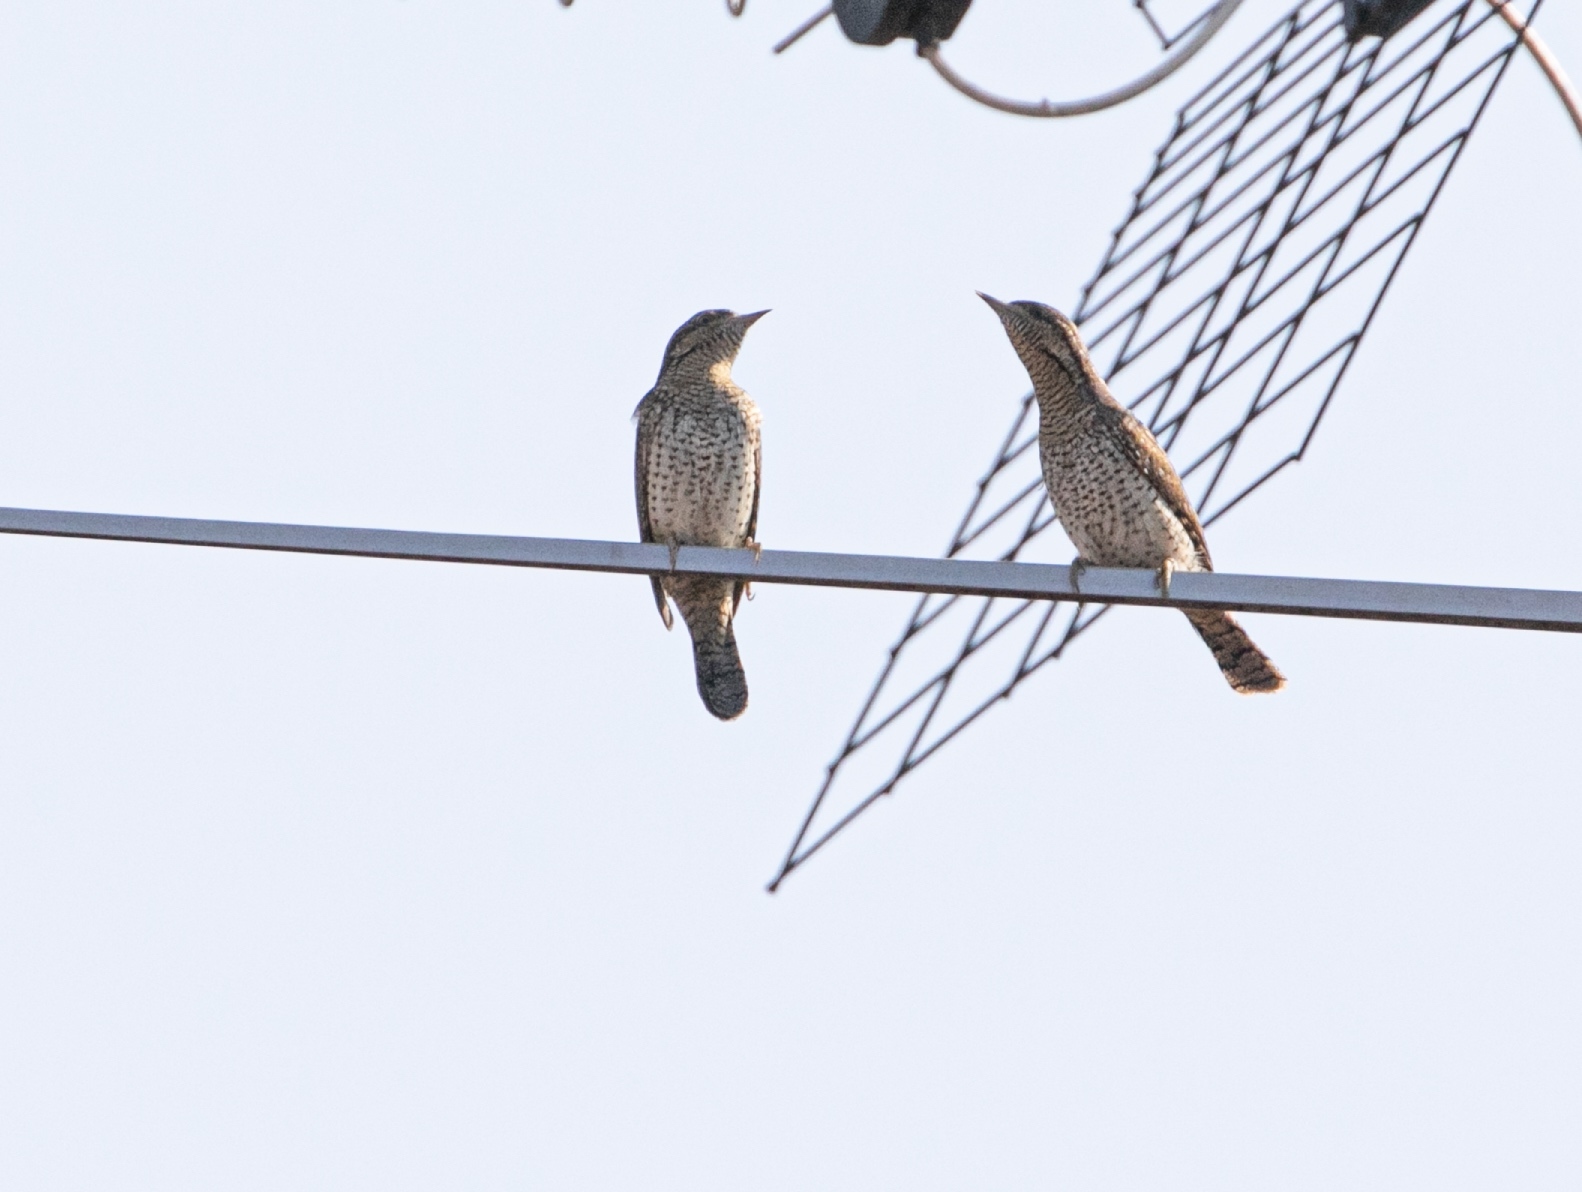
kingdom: Animalia
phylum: Chordata
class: Aves
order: Piciformes
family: Picidae
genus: Jynx
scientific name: Jynx torquilla
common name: Eurasian wryneck
